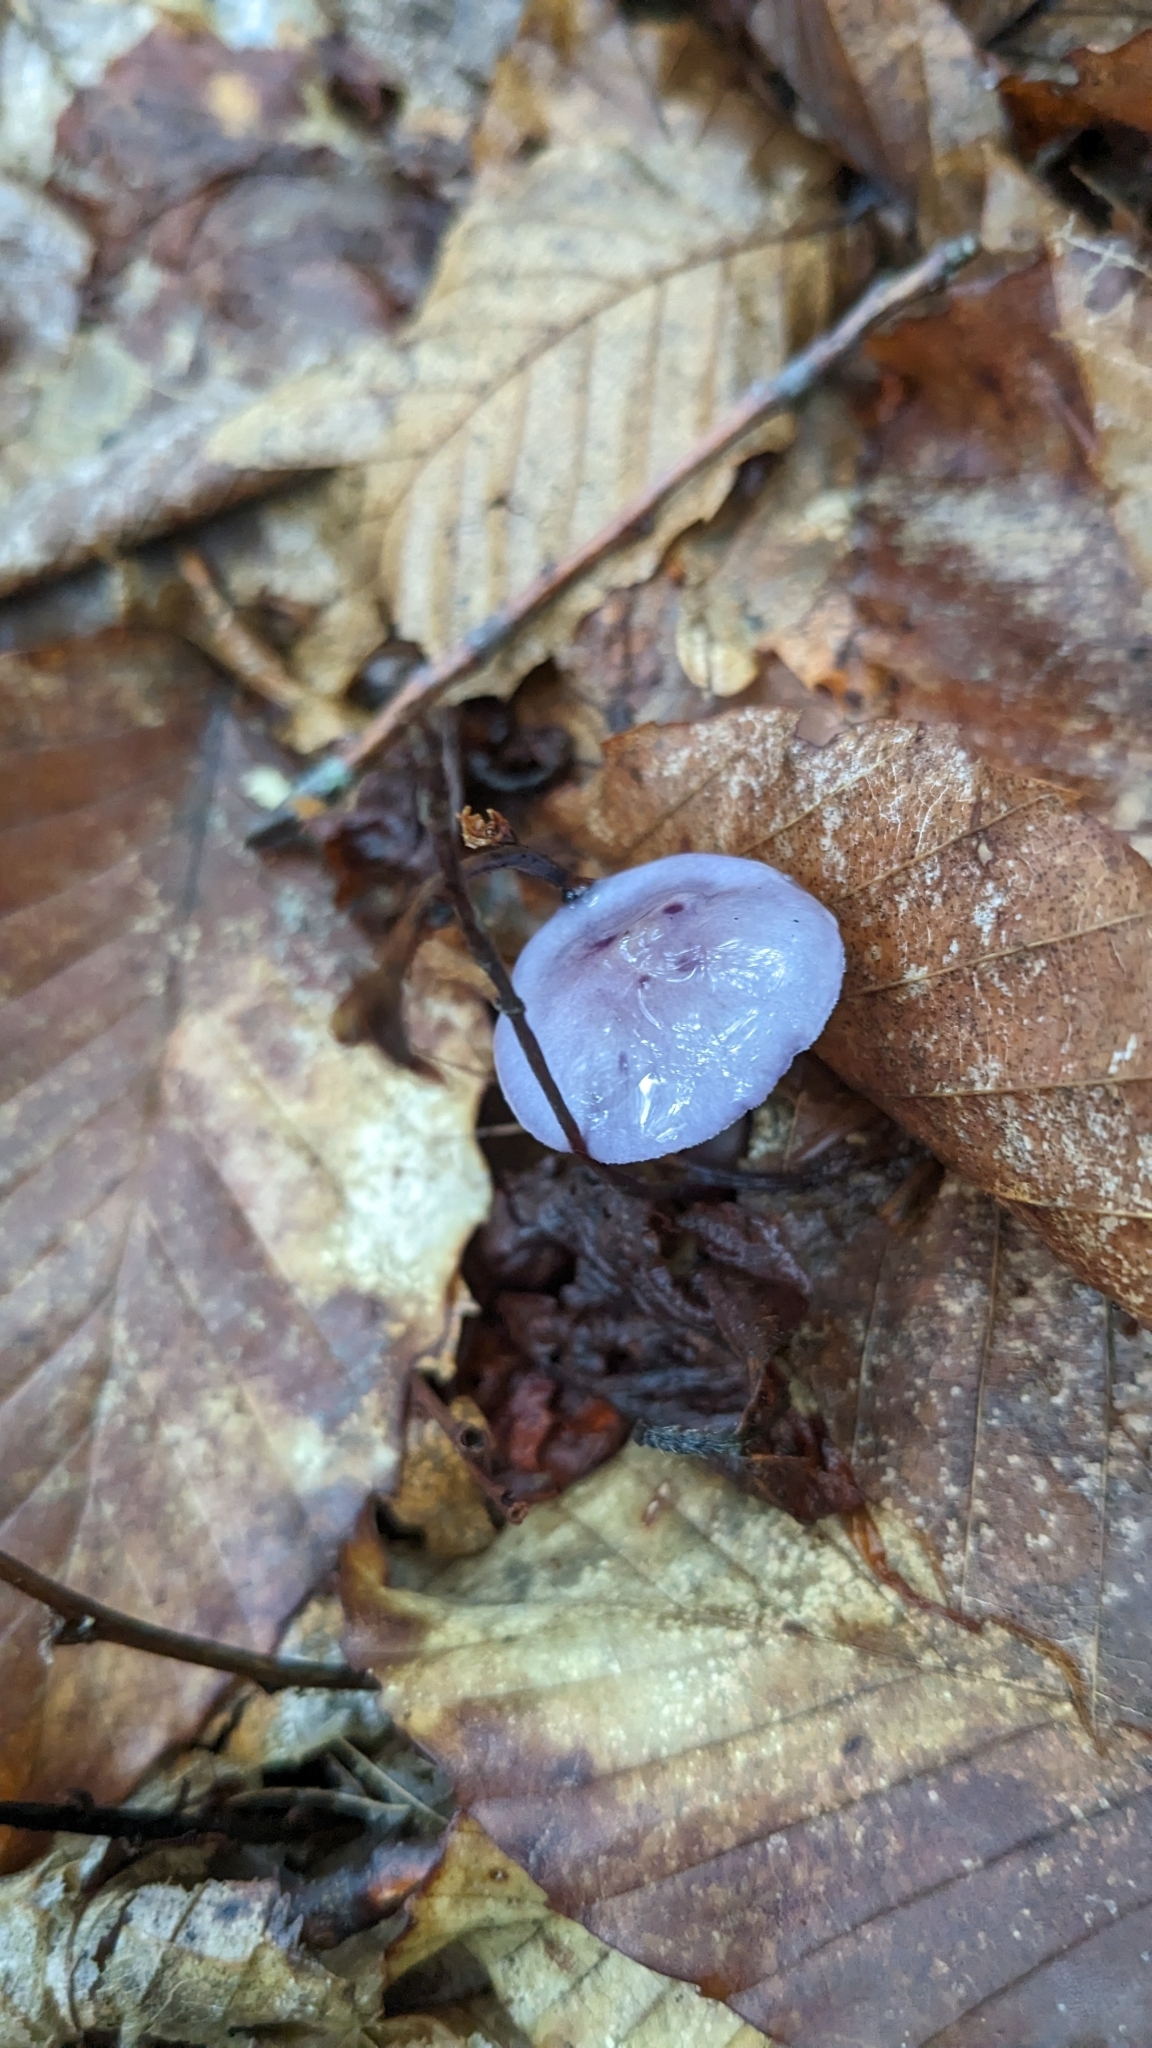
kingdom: Fungi
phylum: Basidiomycota
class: Agaricomycetes
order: Agaricales
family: Cortinariaceae
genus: Cortinarius
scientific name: Cortinarius iodes
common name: Viscid violet cort
